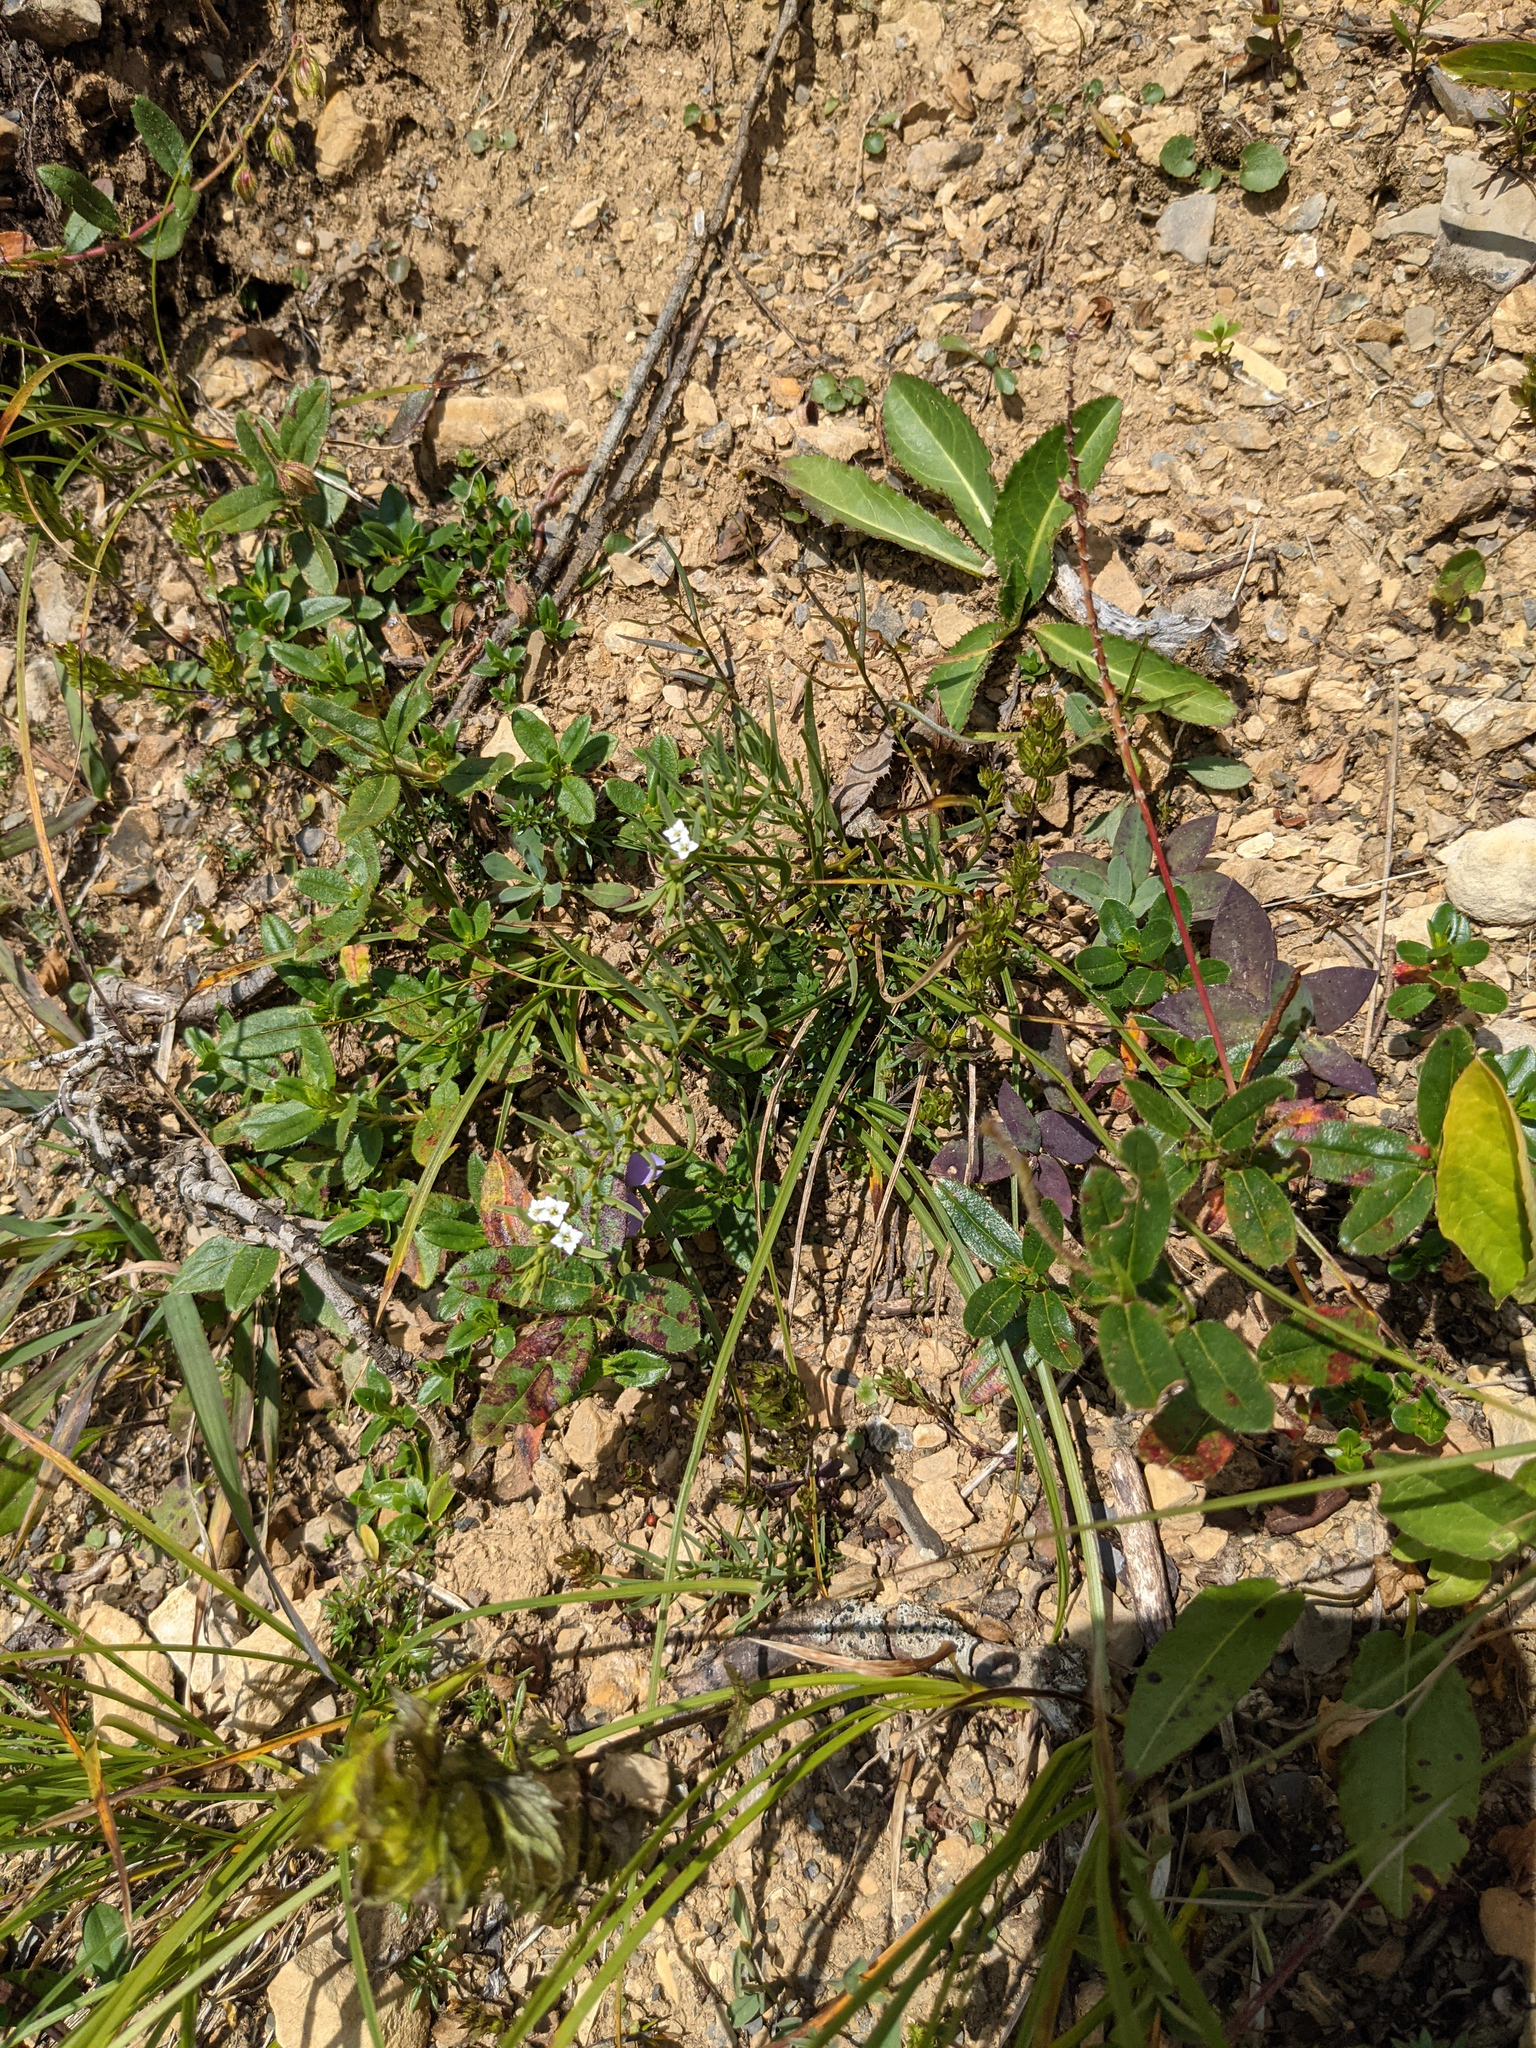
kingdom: Plantae
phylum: Tracheophyta
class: Magnoliopsida
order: Santalales
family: Thesiaceae
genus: Thesium
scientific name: Thesium alpinum
